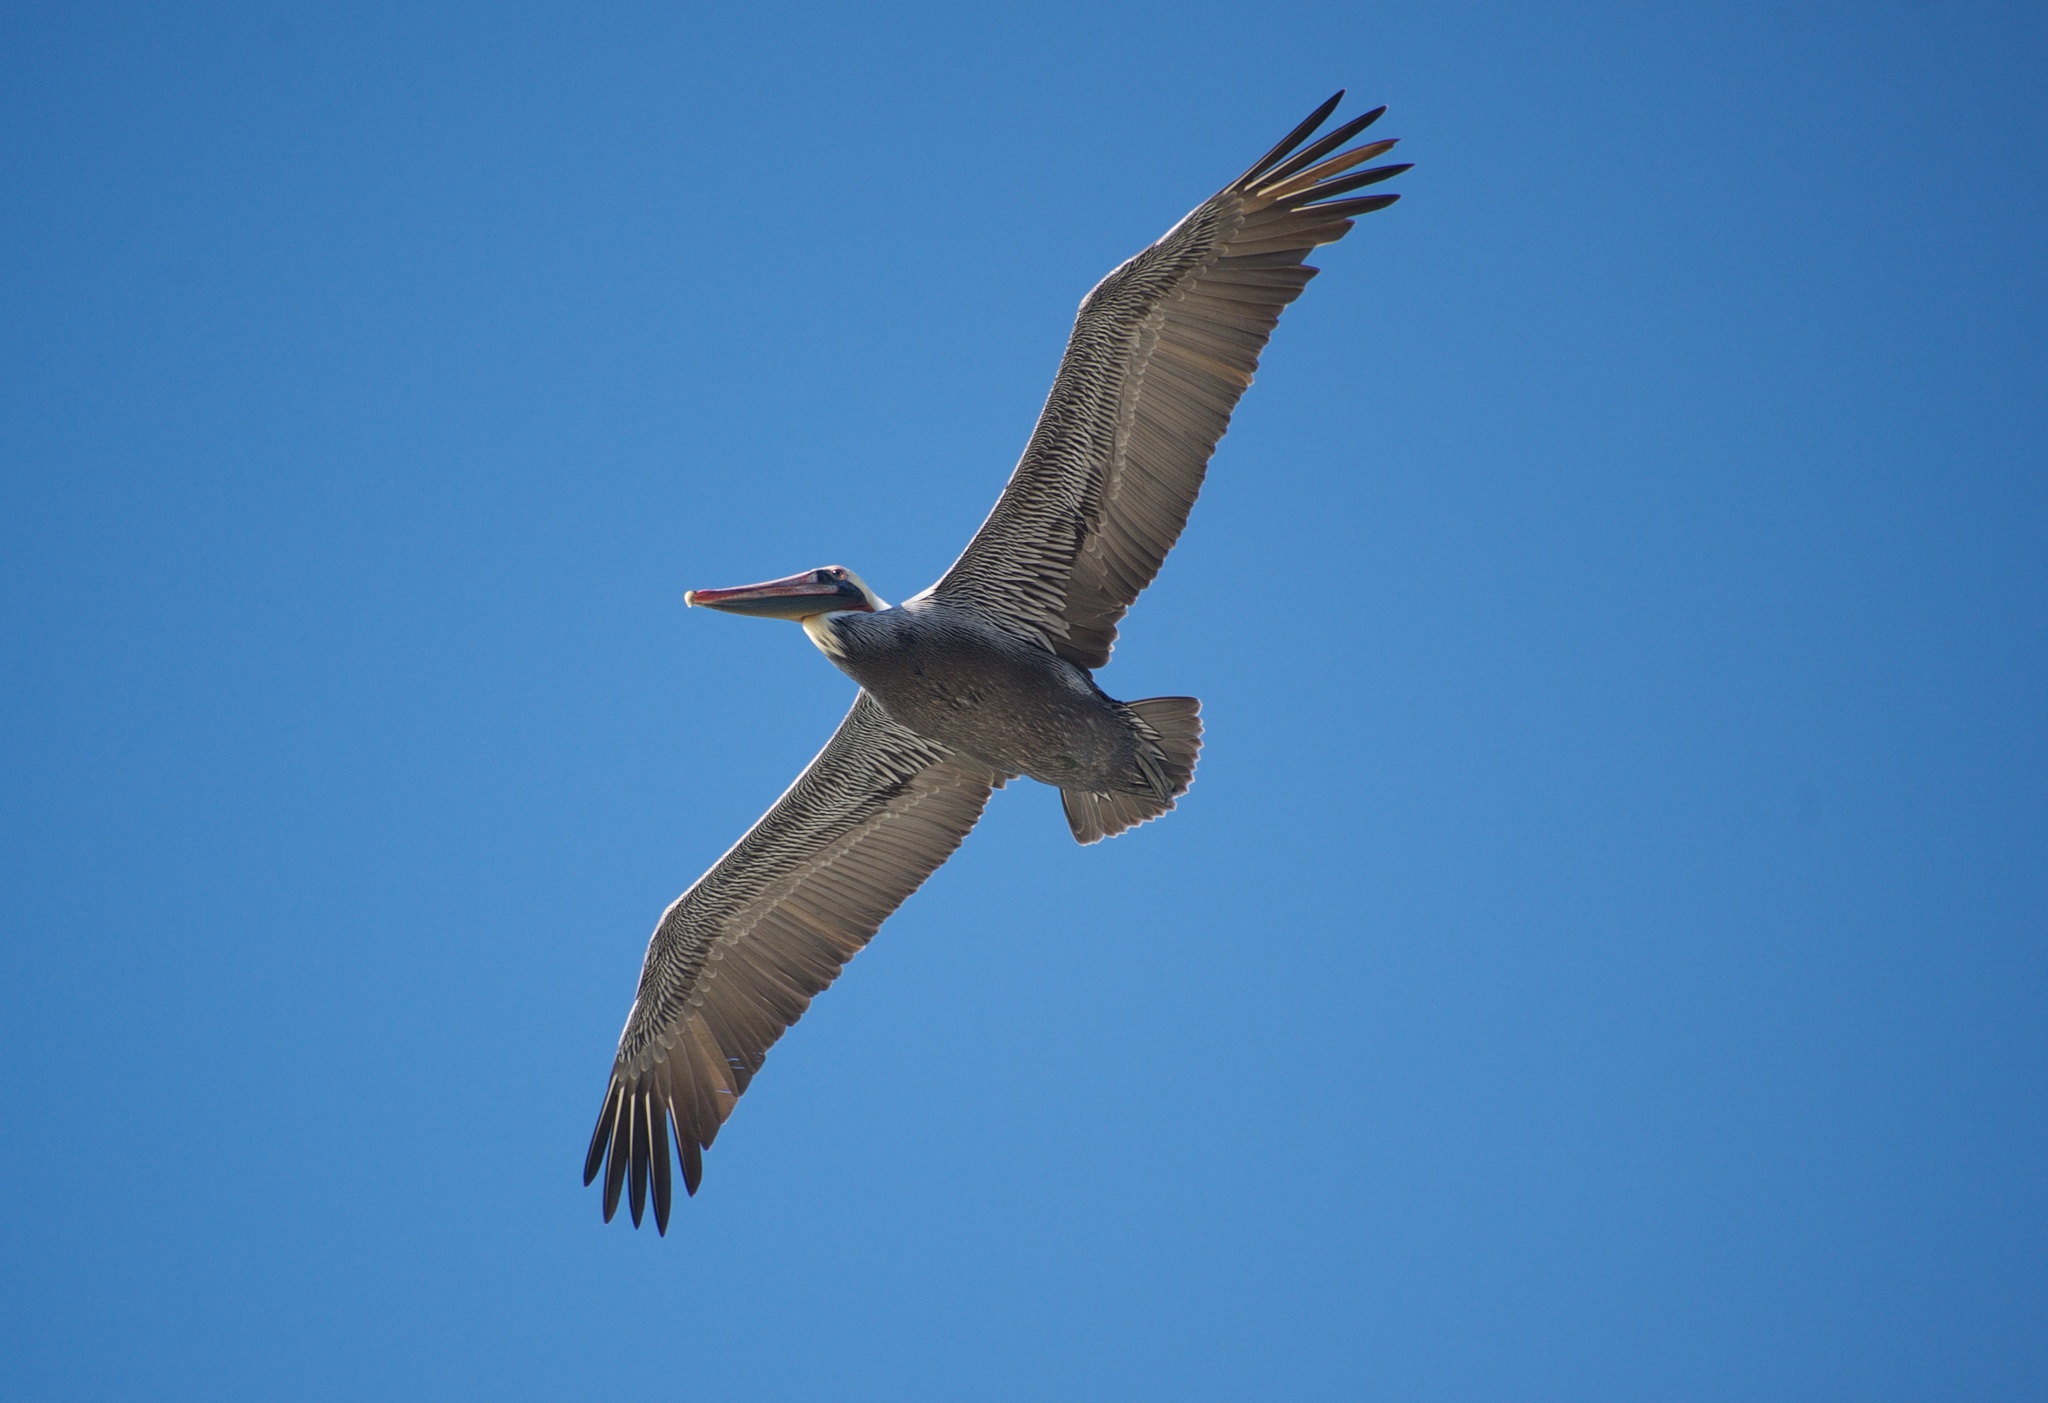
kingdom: Animalia
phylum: Chordata
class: Aves
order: Pelecaniformes
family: Pelecanidae
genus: Pelecanus
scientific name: Pelecanus occidentalis
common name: Brown pelican
